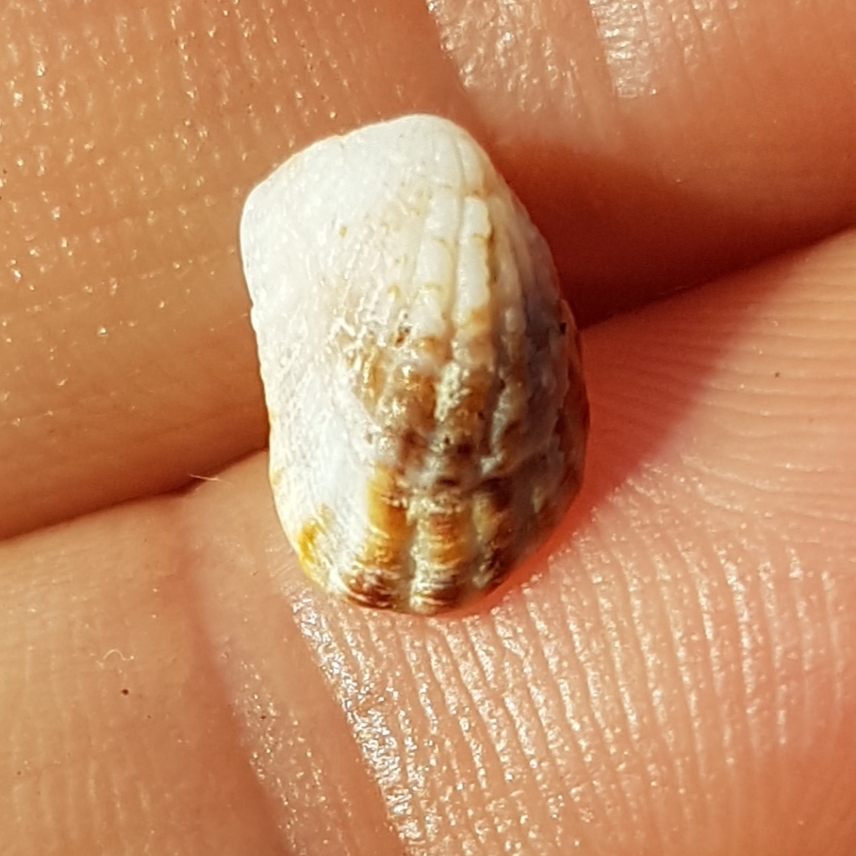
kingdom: Animalia
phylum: Mollusca
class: Bivalvia
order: Carditida
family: Carditidae
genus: Cardita
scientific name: Cardita calyculata
